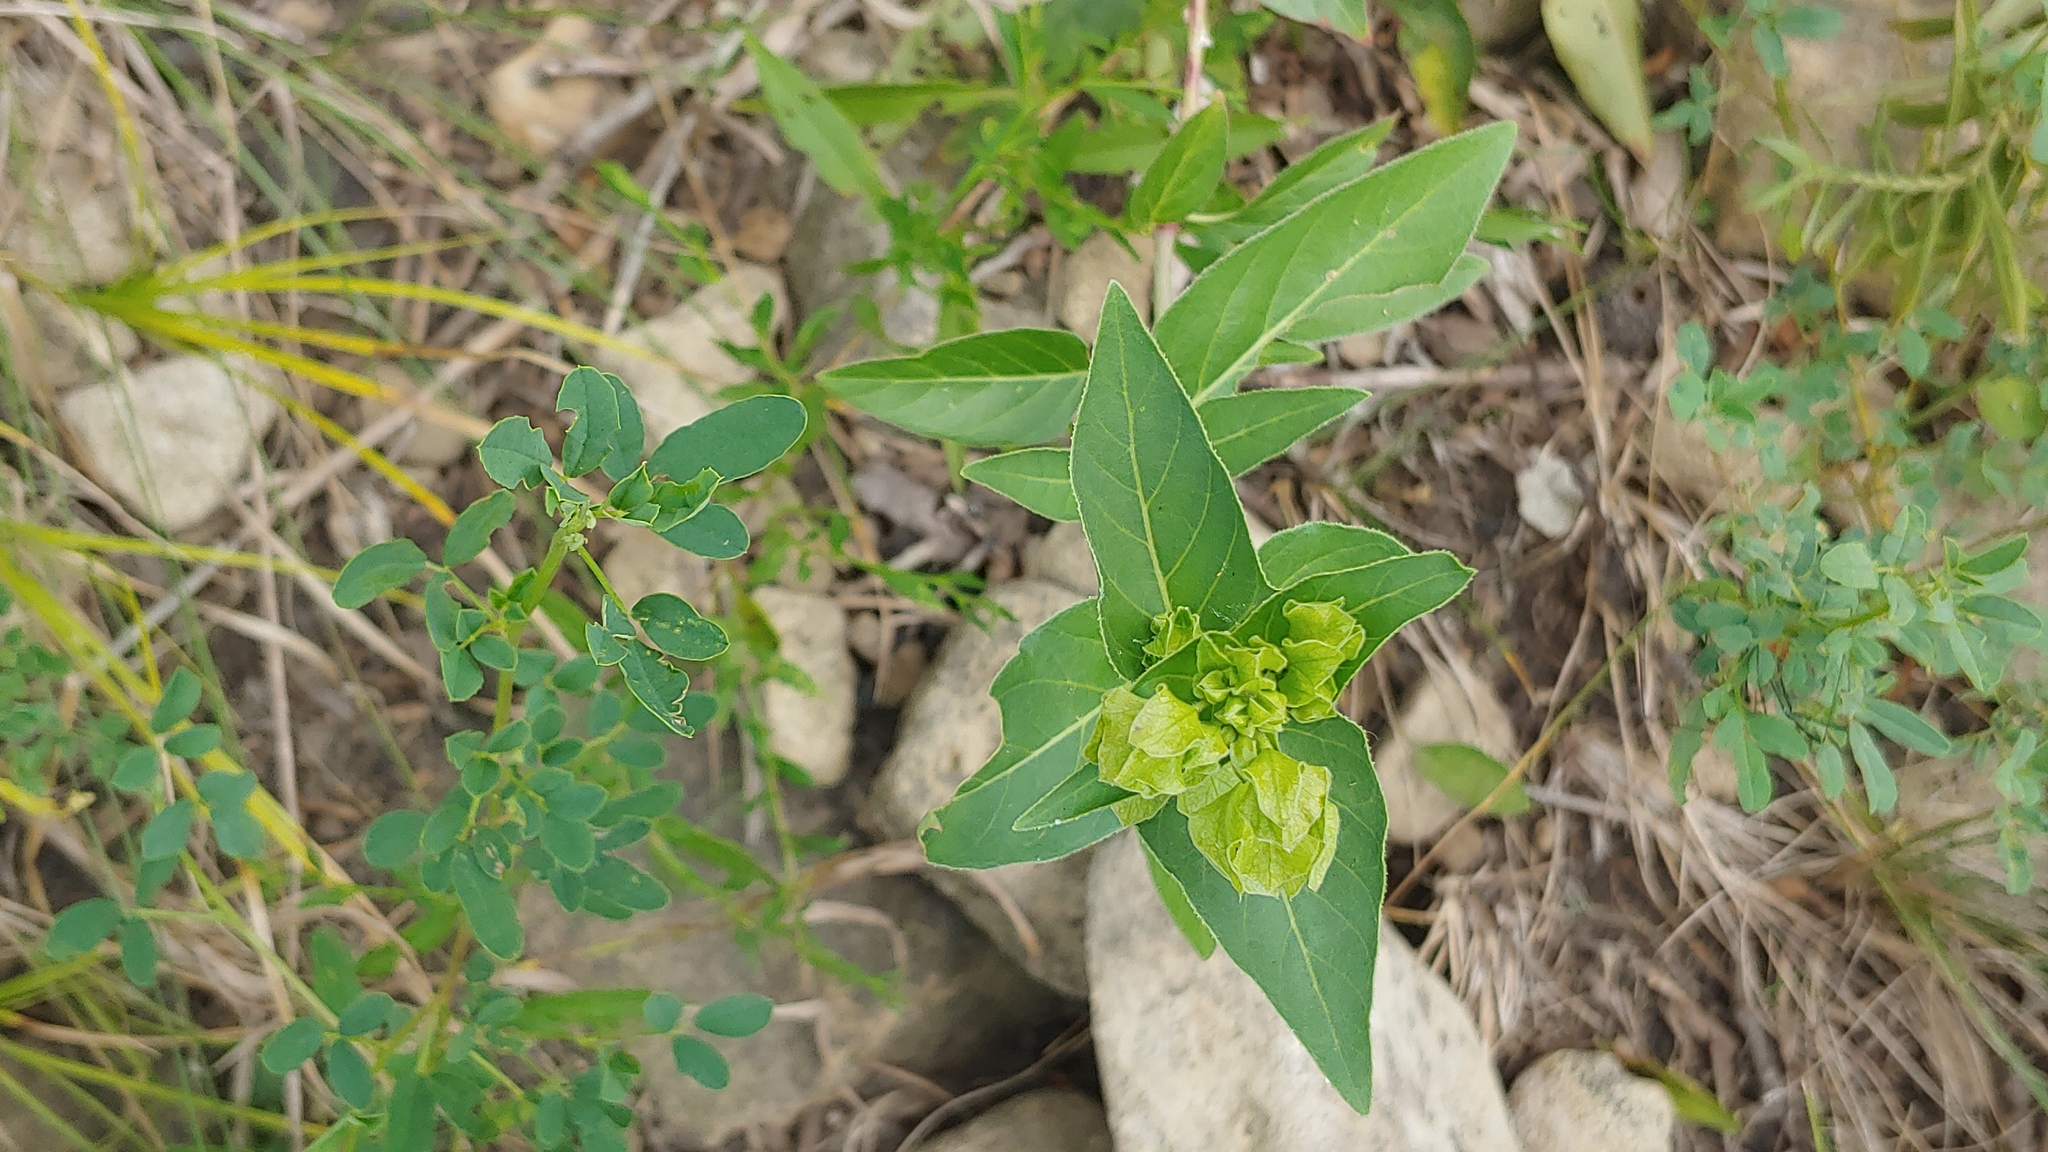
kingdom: Plantae
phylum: Tracheophyta
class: Magnoliopsida
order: Caryophyllales
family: Nyctaginaceae
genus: Mirabilis
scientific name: Mirabilis nyctaginea
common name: Umbrella wort
